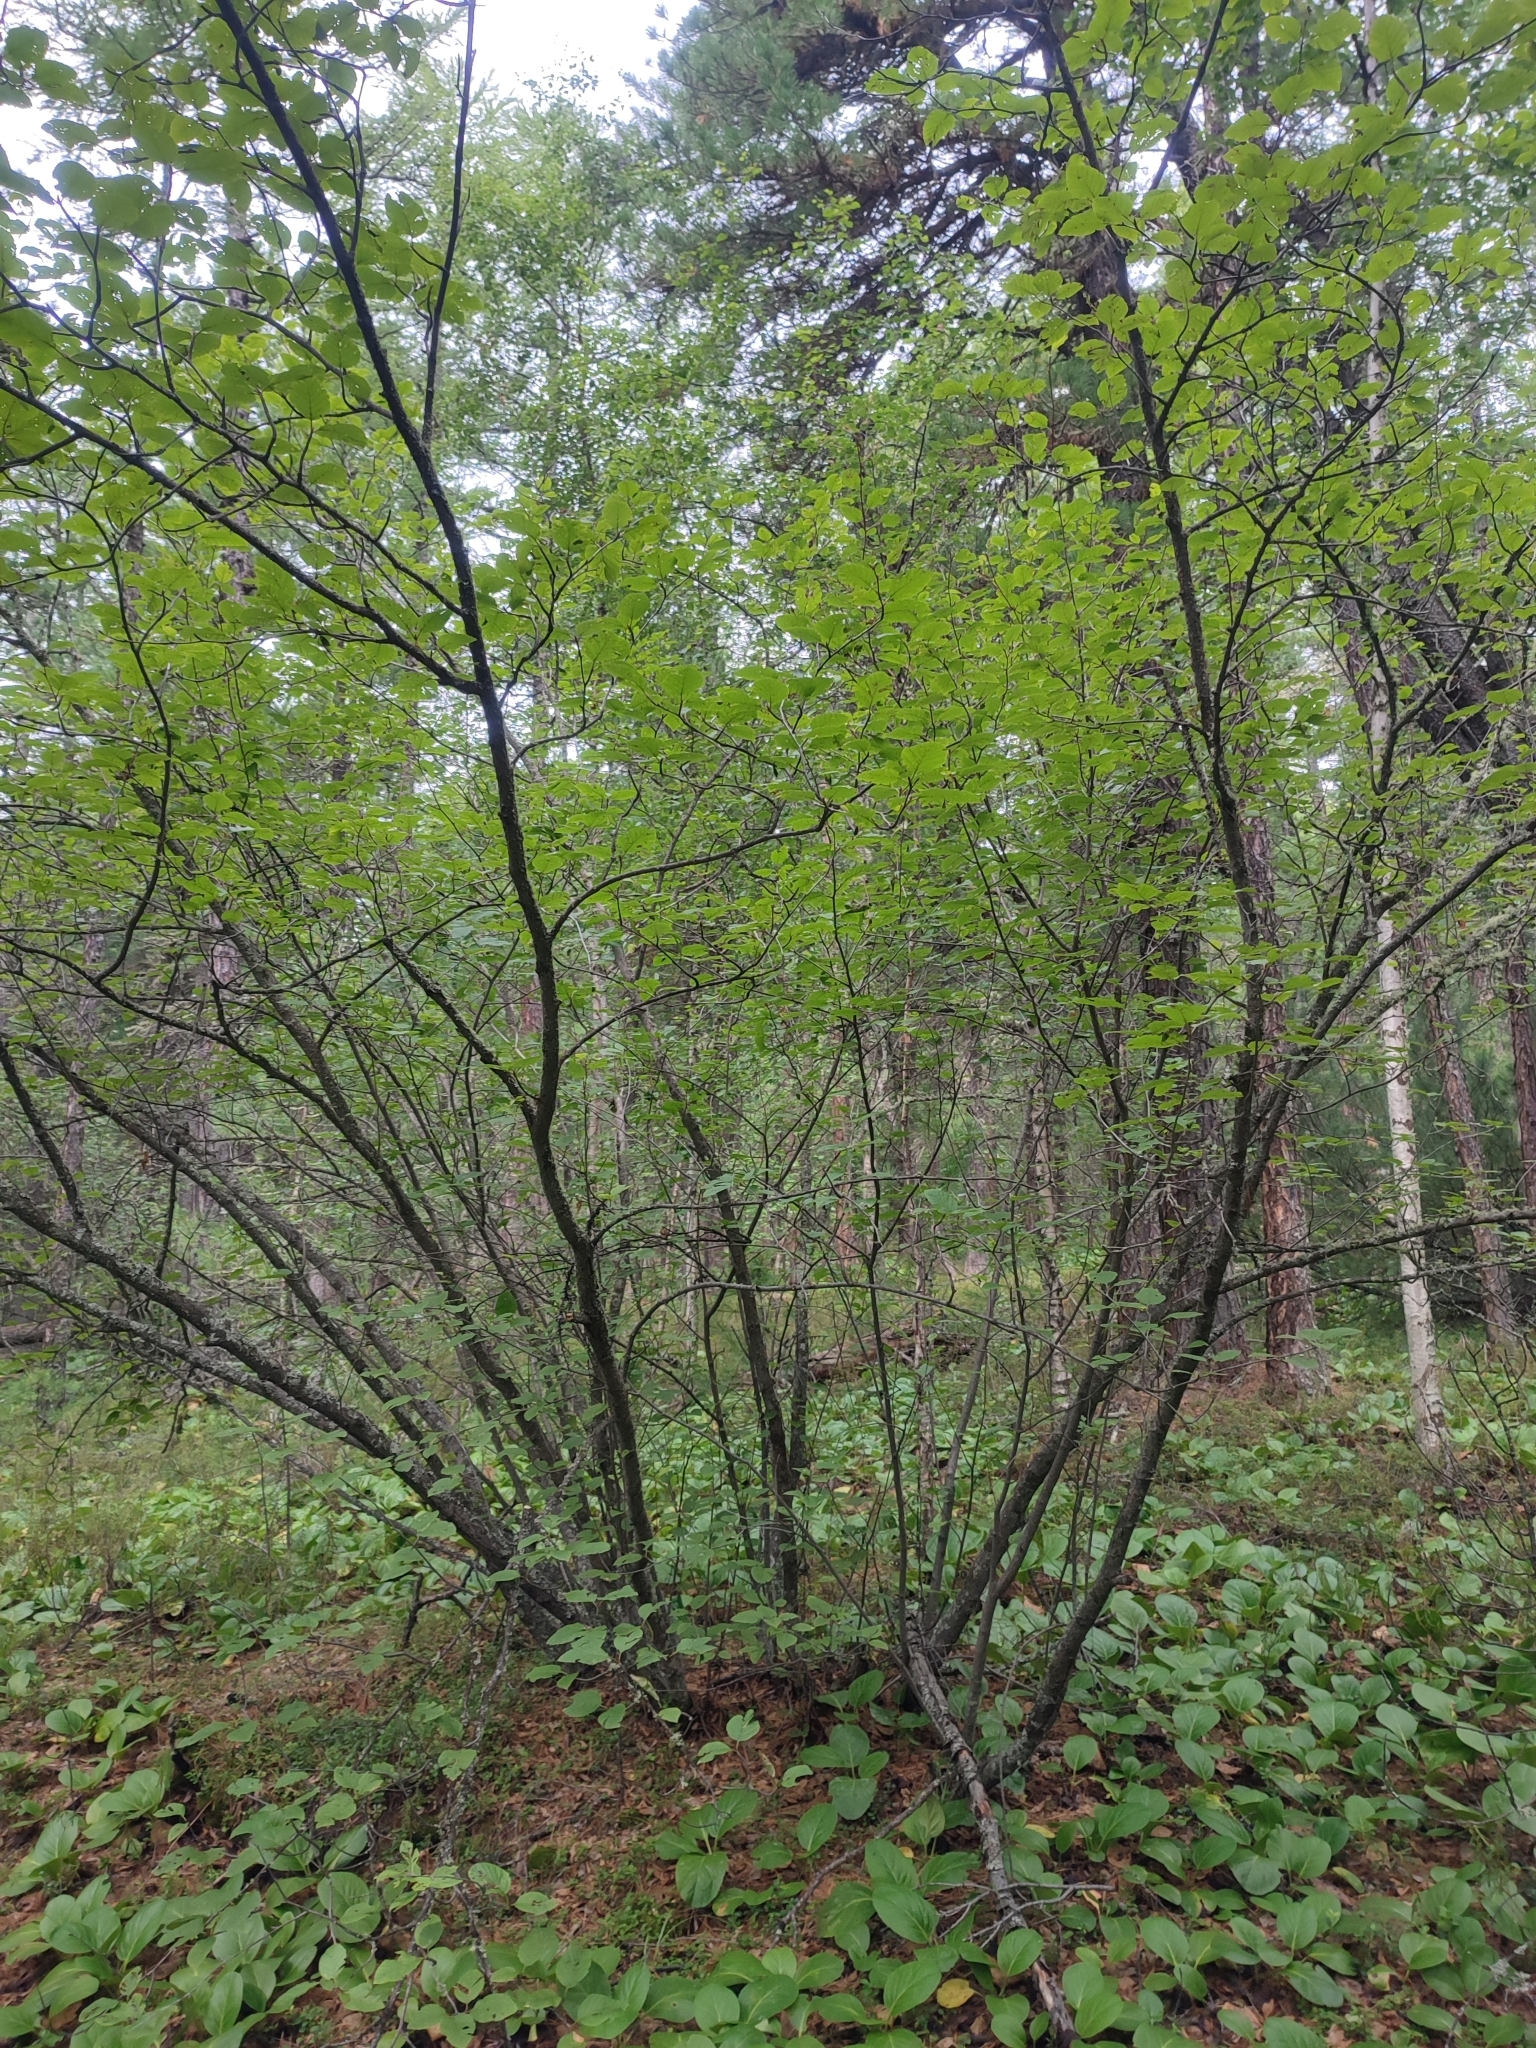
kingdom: Plantae
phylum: Tracheophyta
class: Magnoliopsida
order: Fagales
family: Betulaceae
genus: Alnus
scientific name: Alnus alnobetula
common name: Green alder
